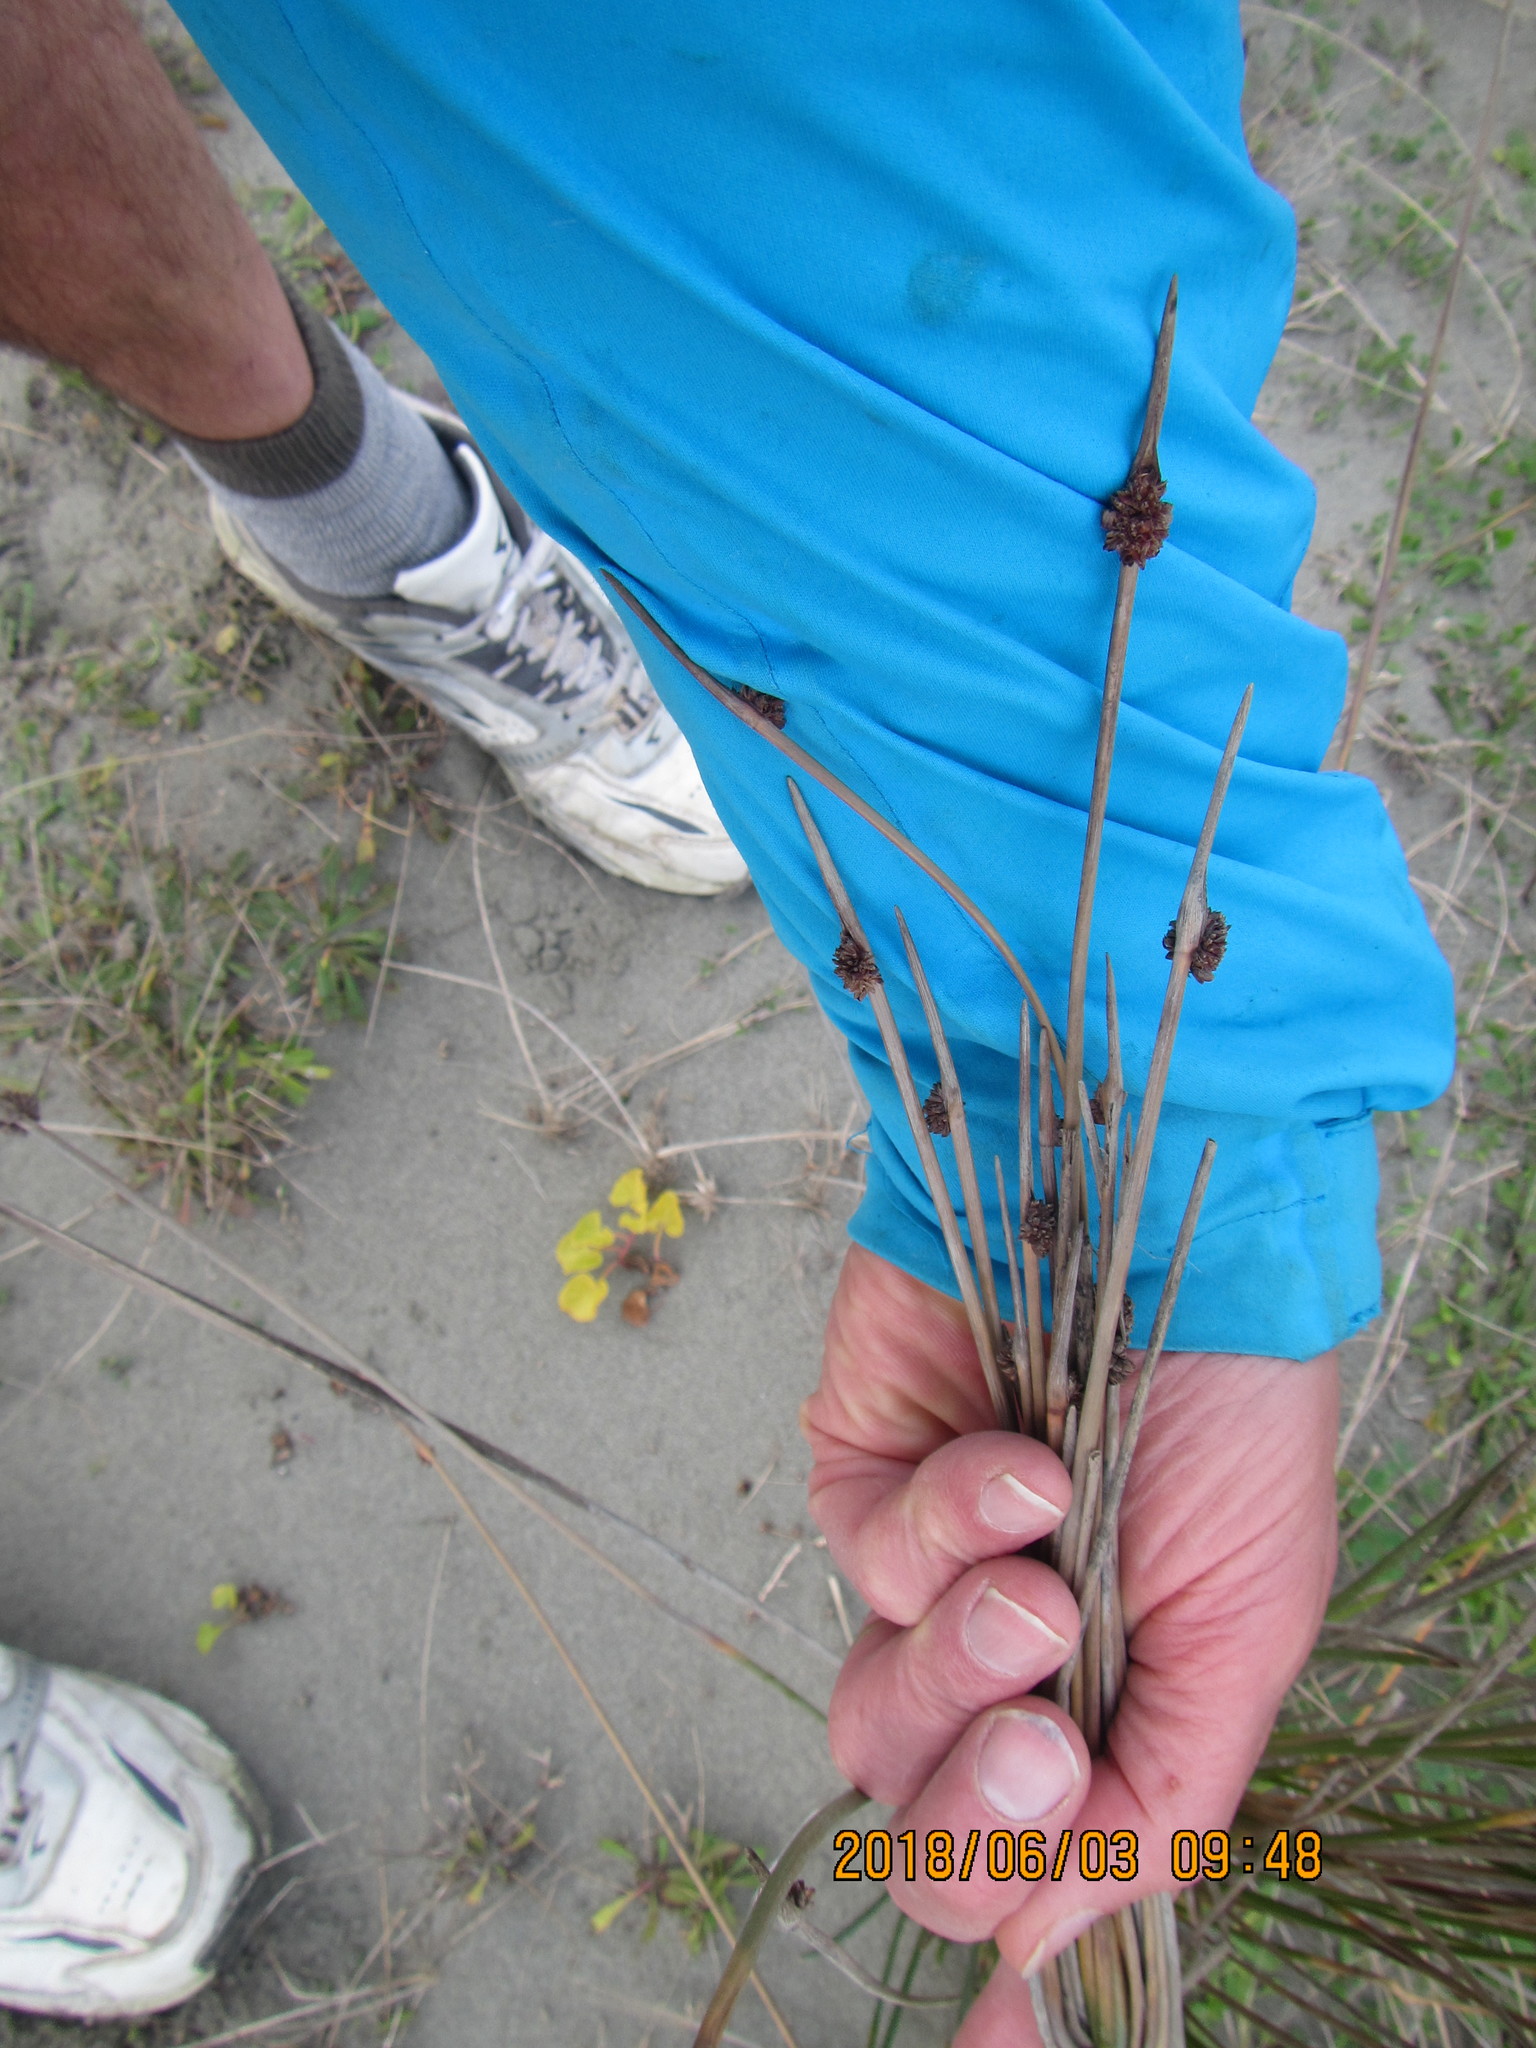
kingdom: Plantae
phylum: Tracheophyta
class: Liliopsida
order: Poales
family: Cyperaceae
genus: Ficinia
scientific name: Ficinia nodosa
